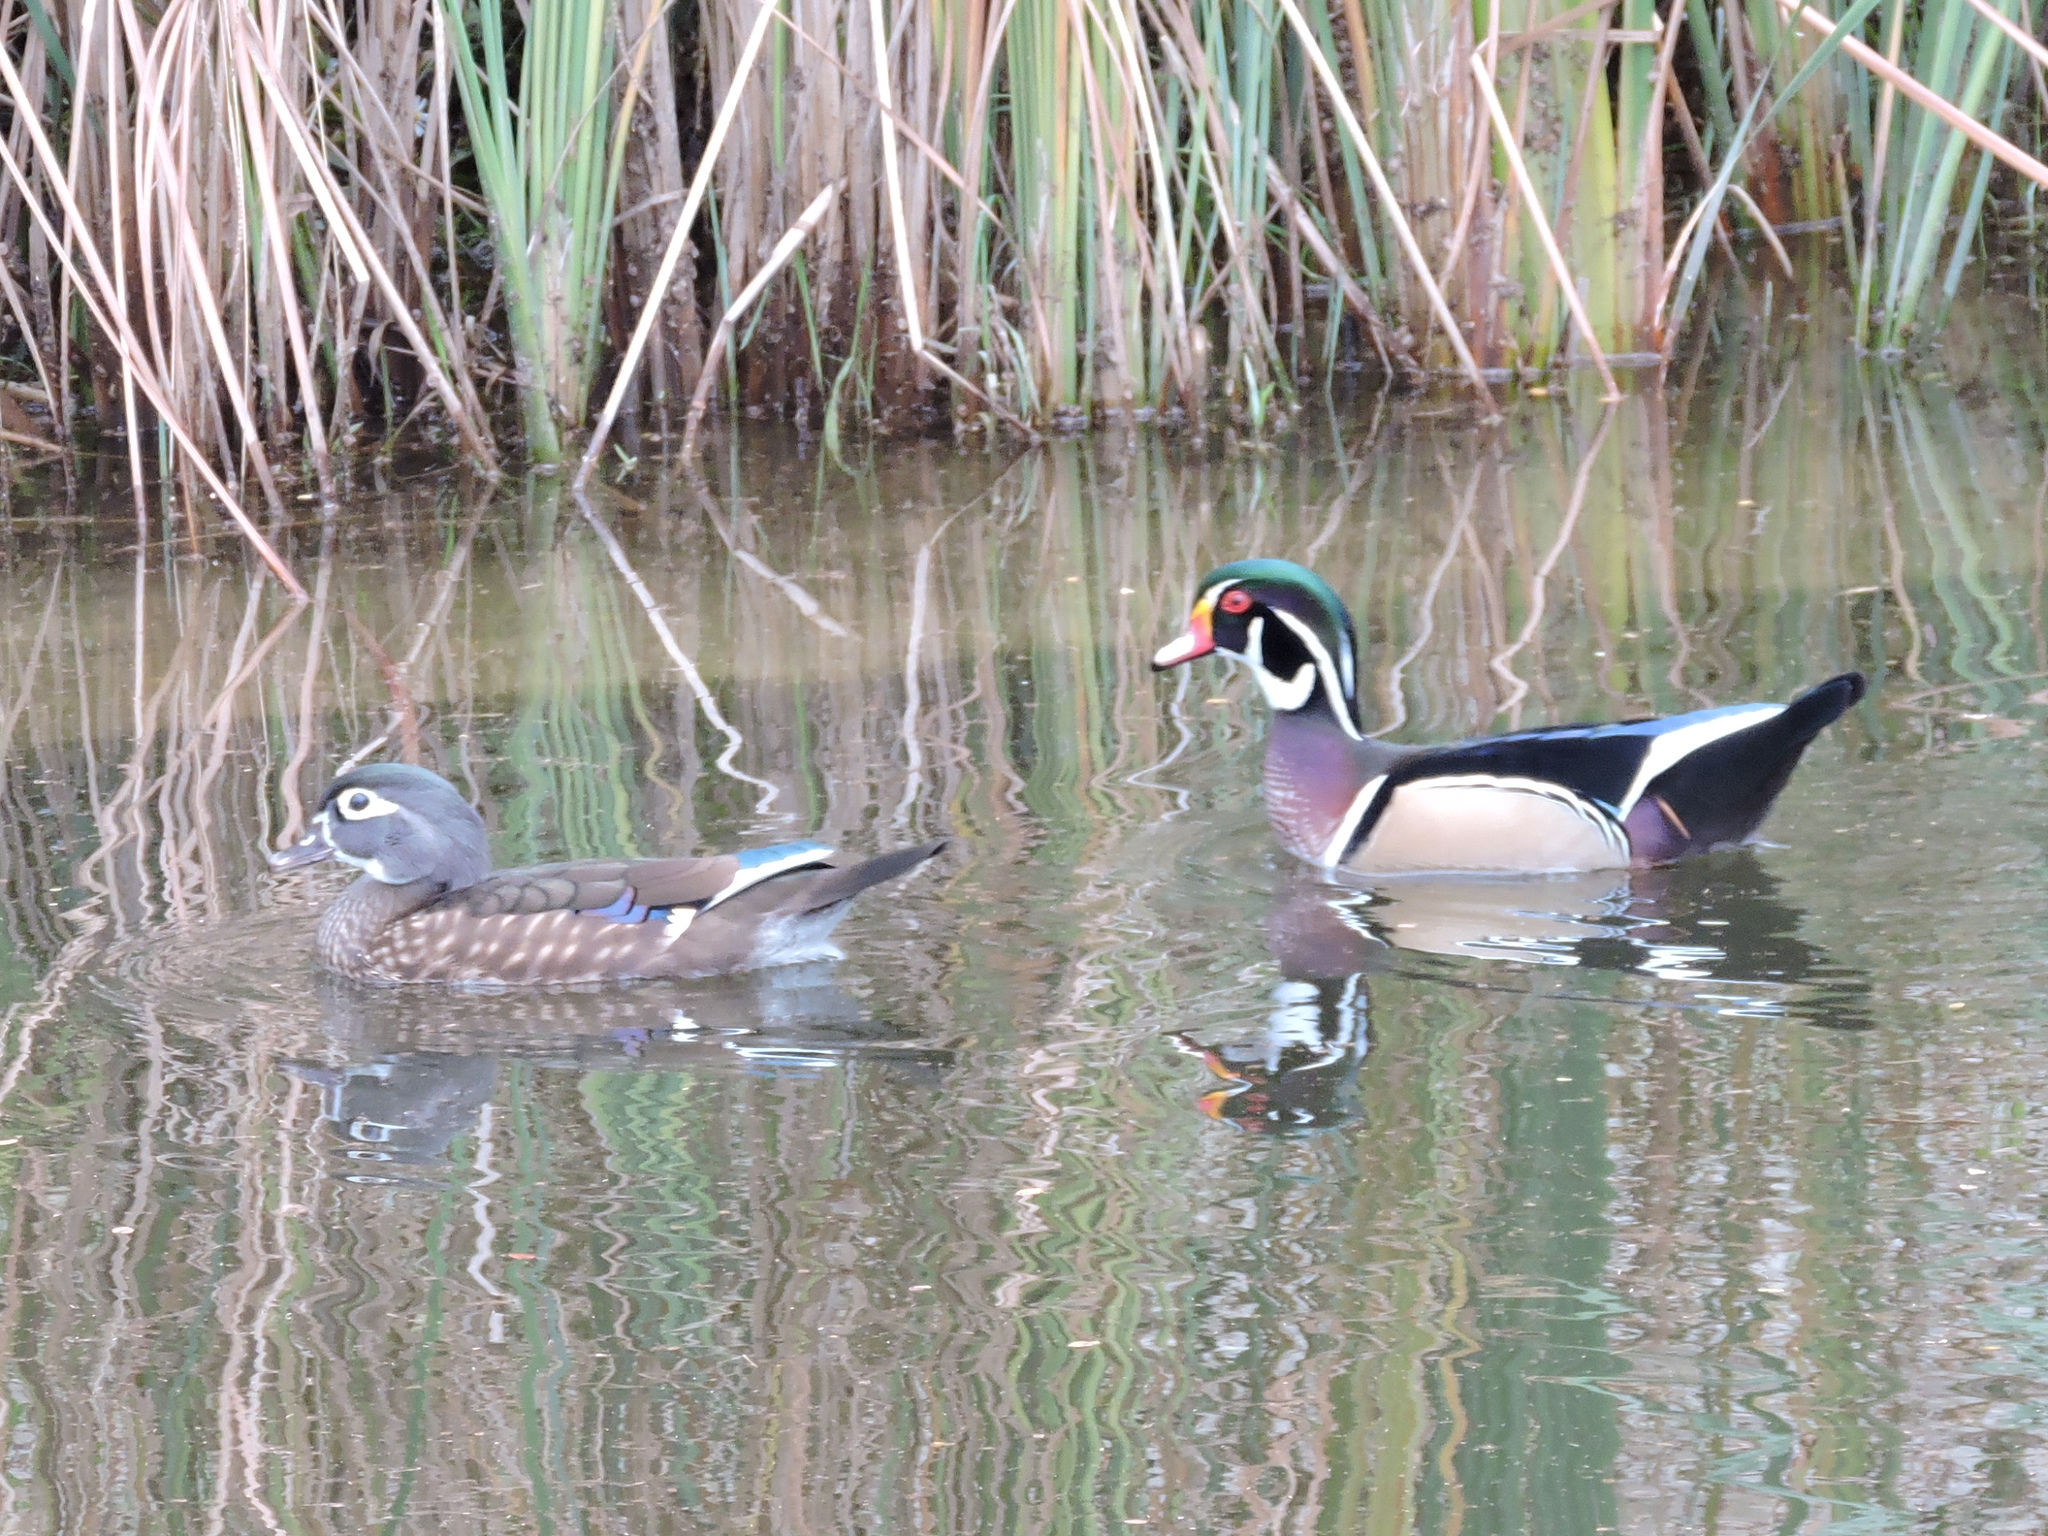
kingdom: Animalia
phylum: Chordata
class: Aves
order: Anseriformes
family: Anatidae
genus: Aix
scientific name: Aix sponsa
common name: Wood duck
